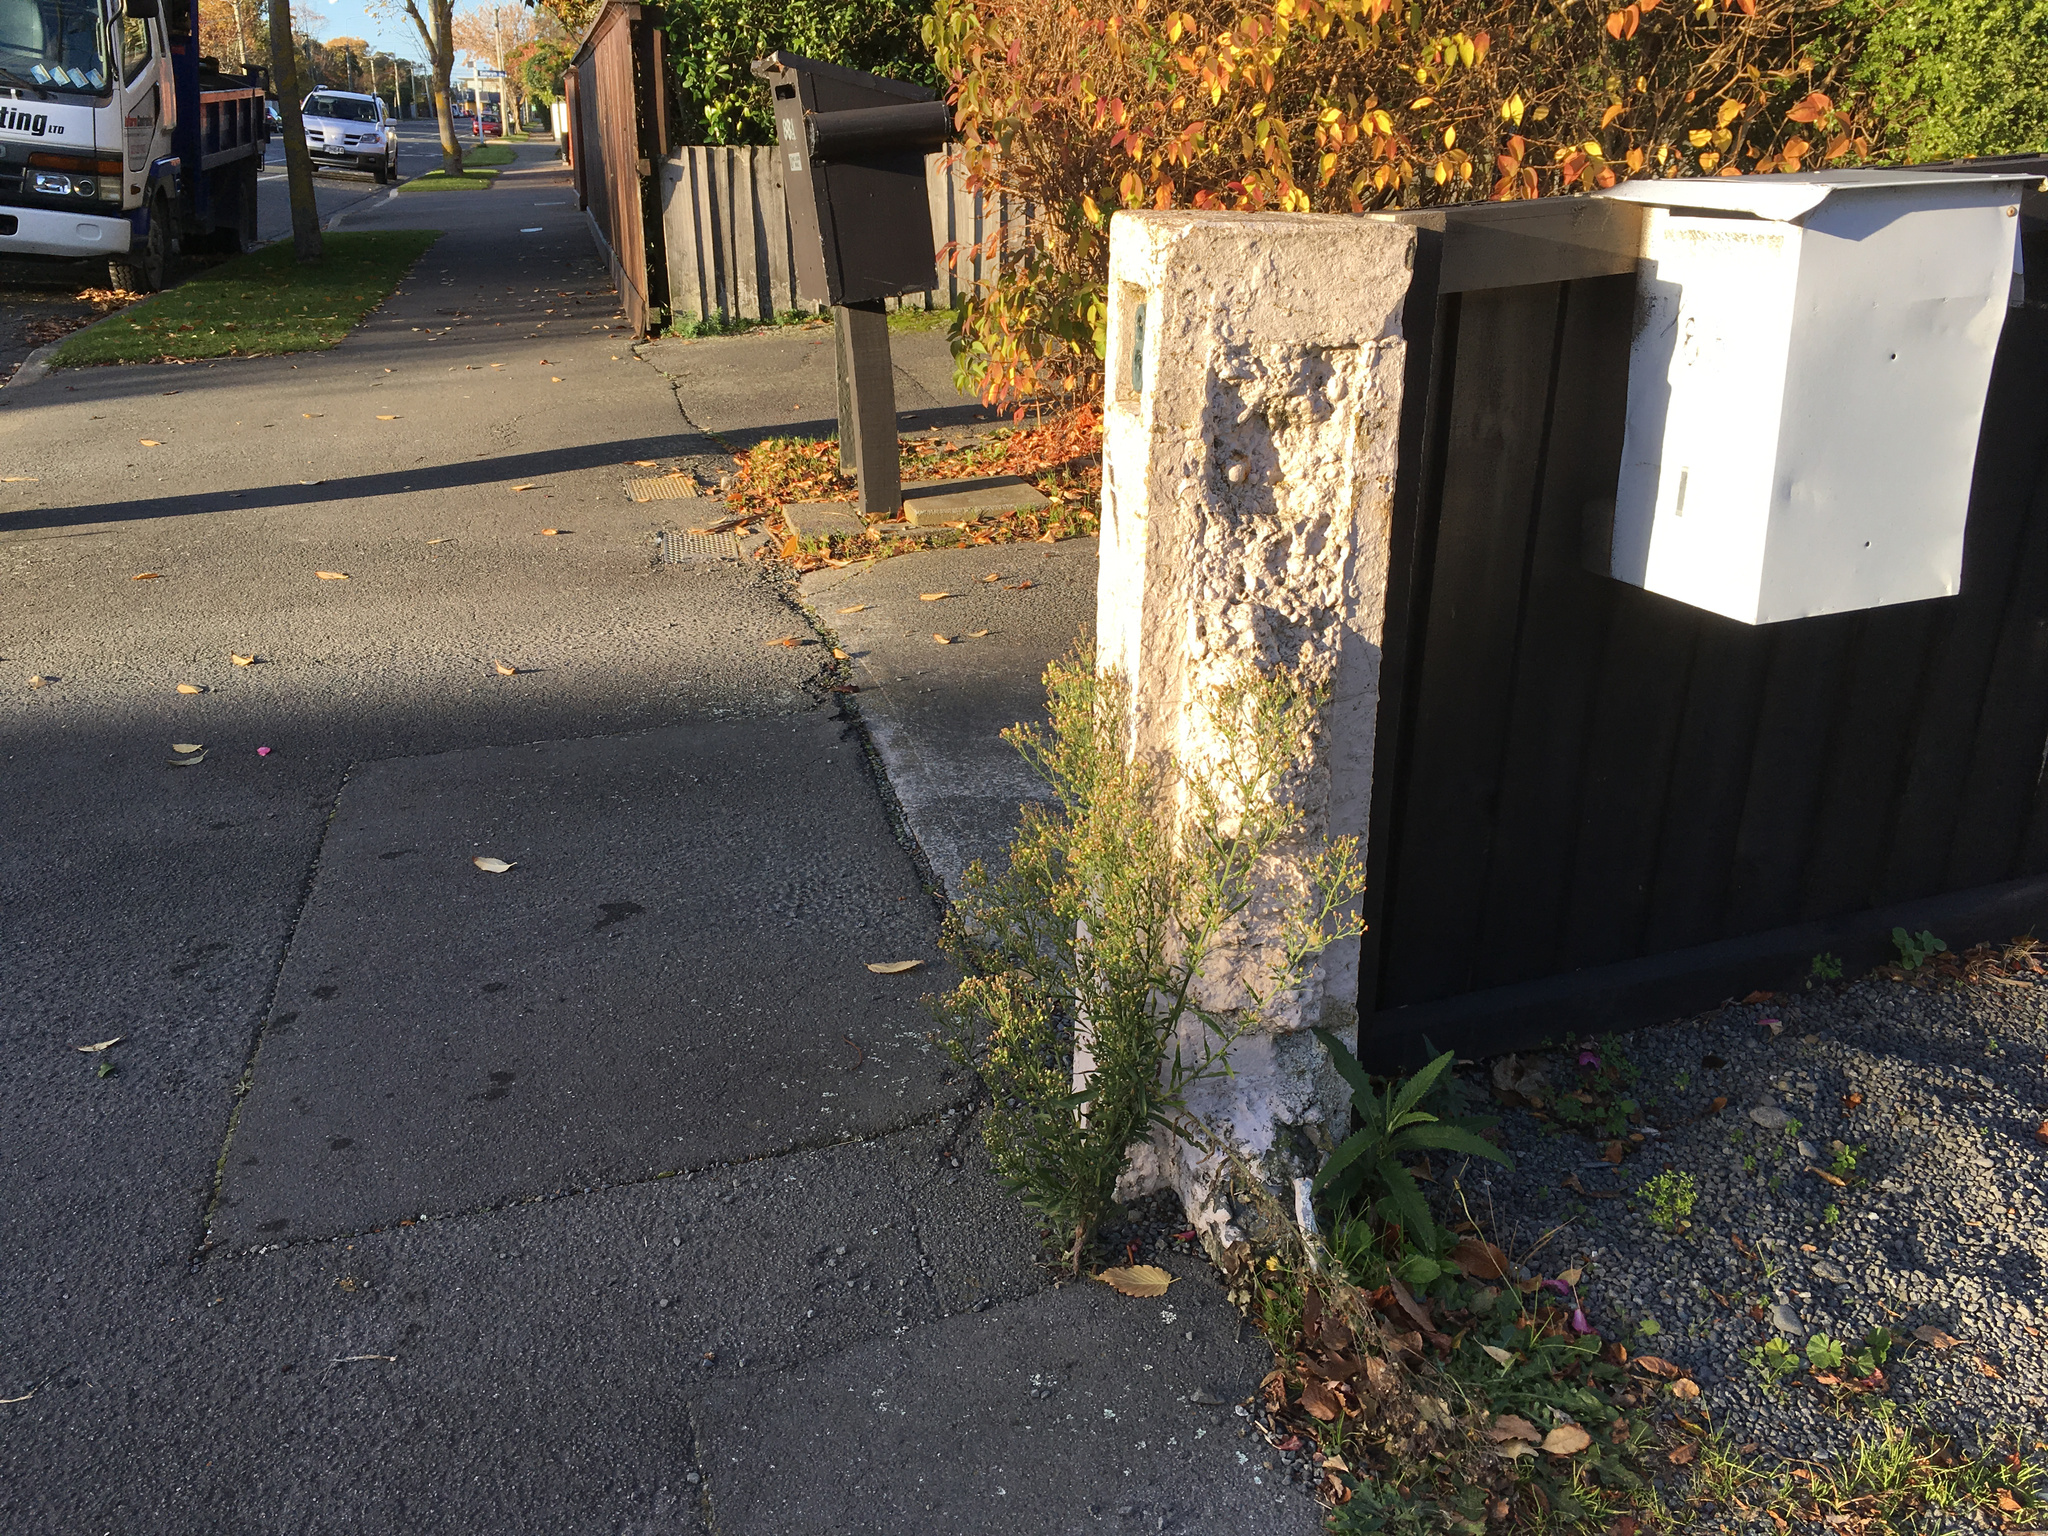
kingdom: Plantae
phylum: Tracheophyta
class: Magnoliopsida
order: Asterales
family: Asteraceae
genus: Senecio
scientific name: Senecio minimus
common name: Toothed fireweed
